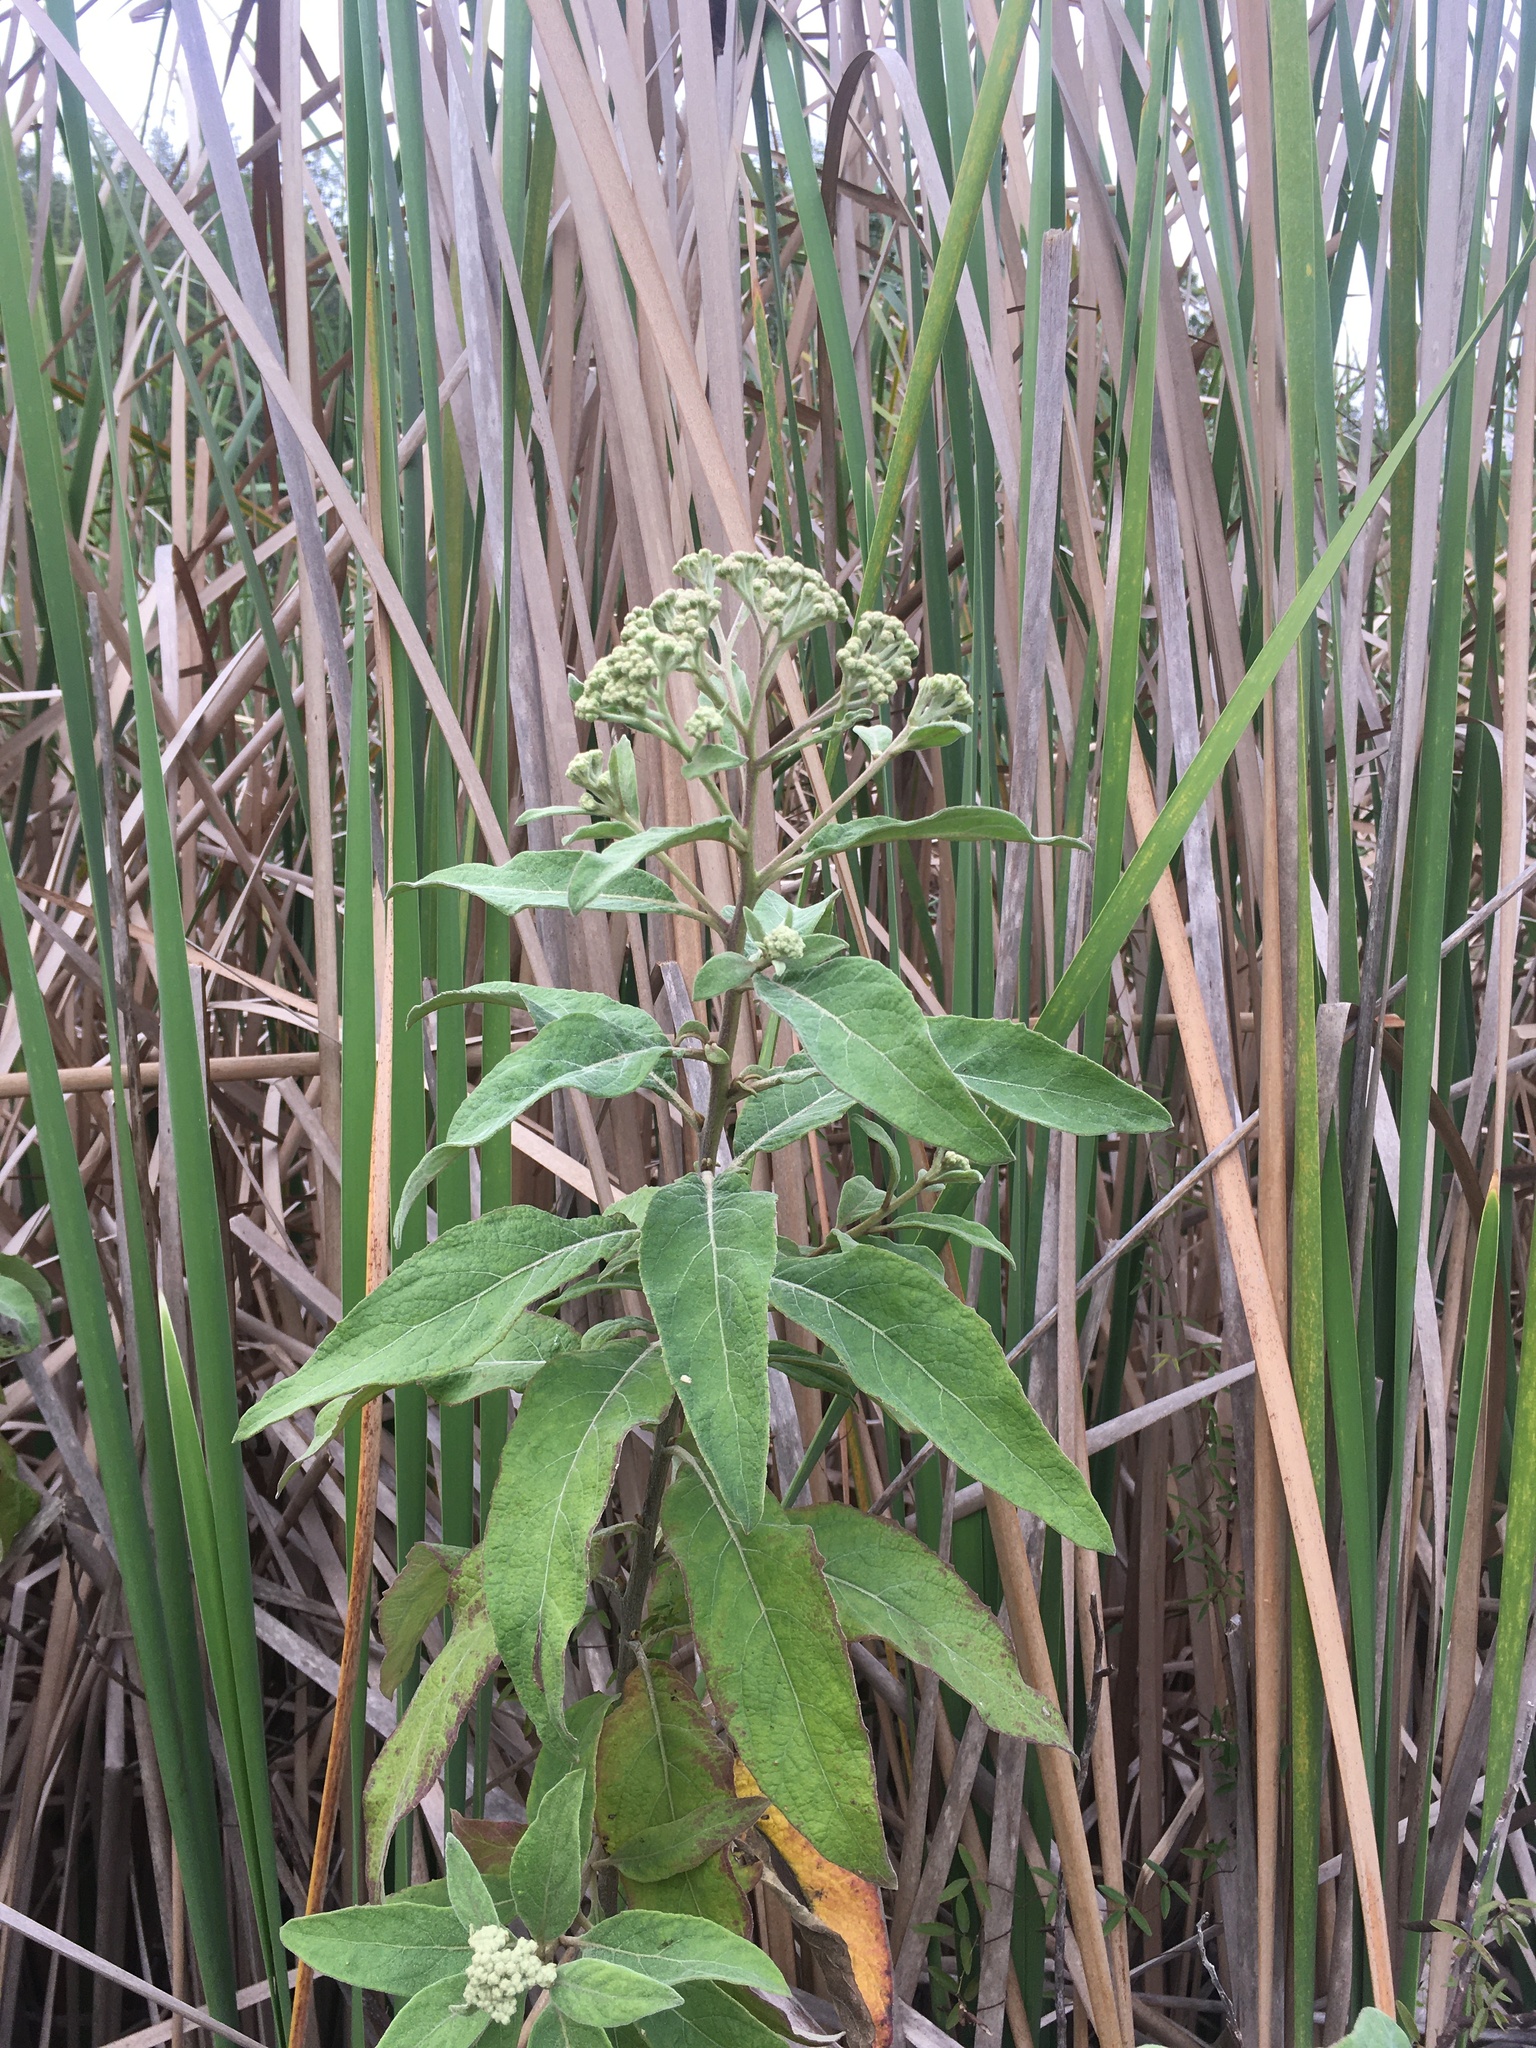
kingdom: Plantae
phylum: Tracheophyta
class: Magnoliopsida
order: Asterales
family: Asteraceae
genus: Pluchea
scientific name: Pluchea carolinensis
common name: Marsh fleabane
